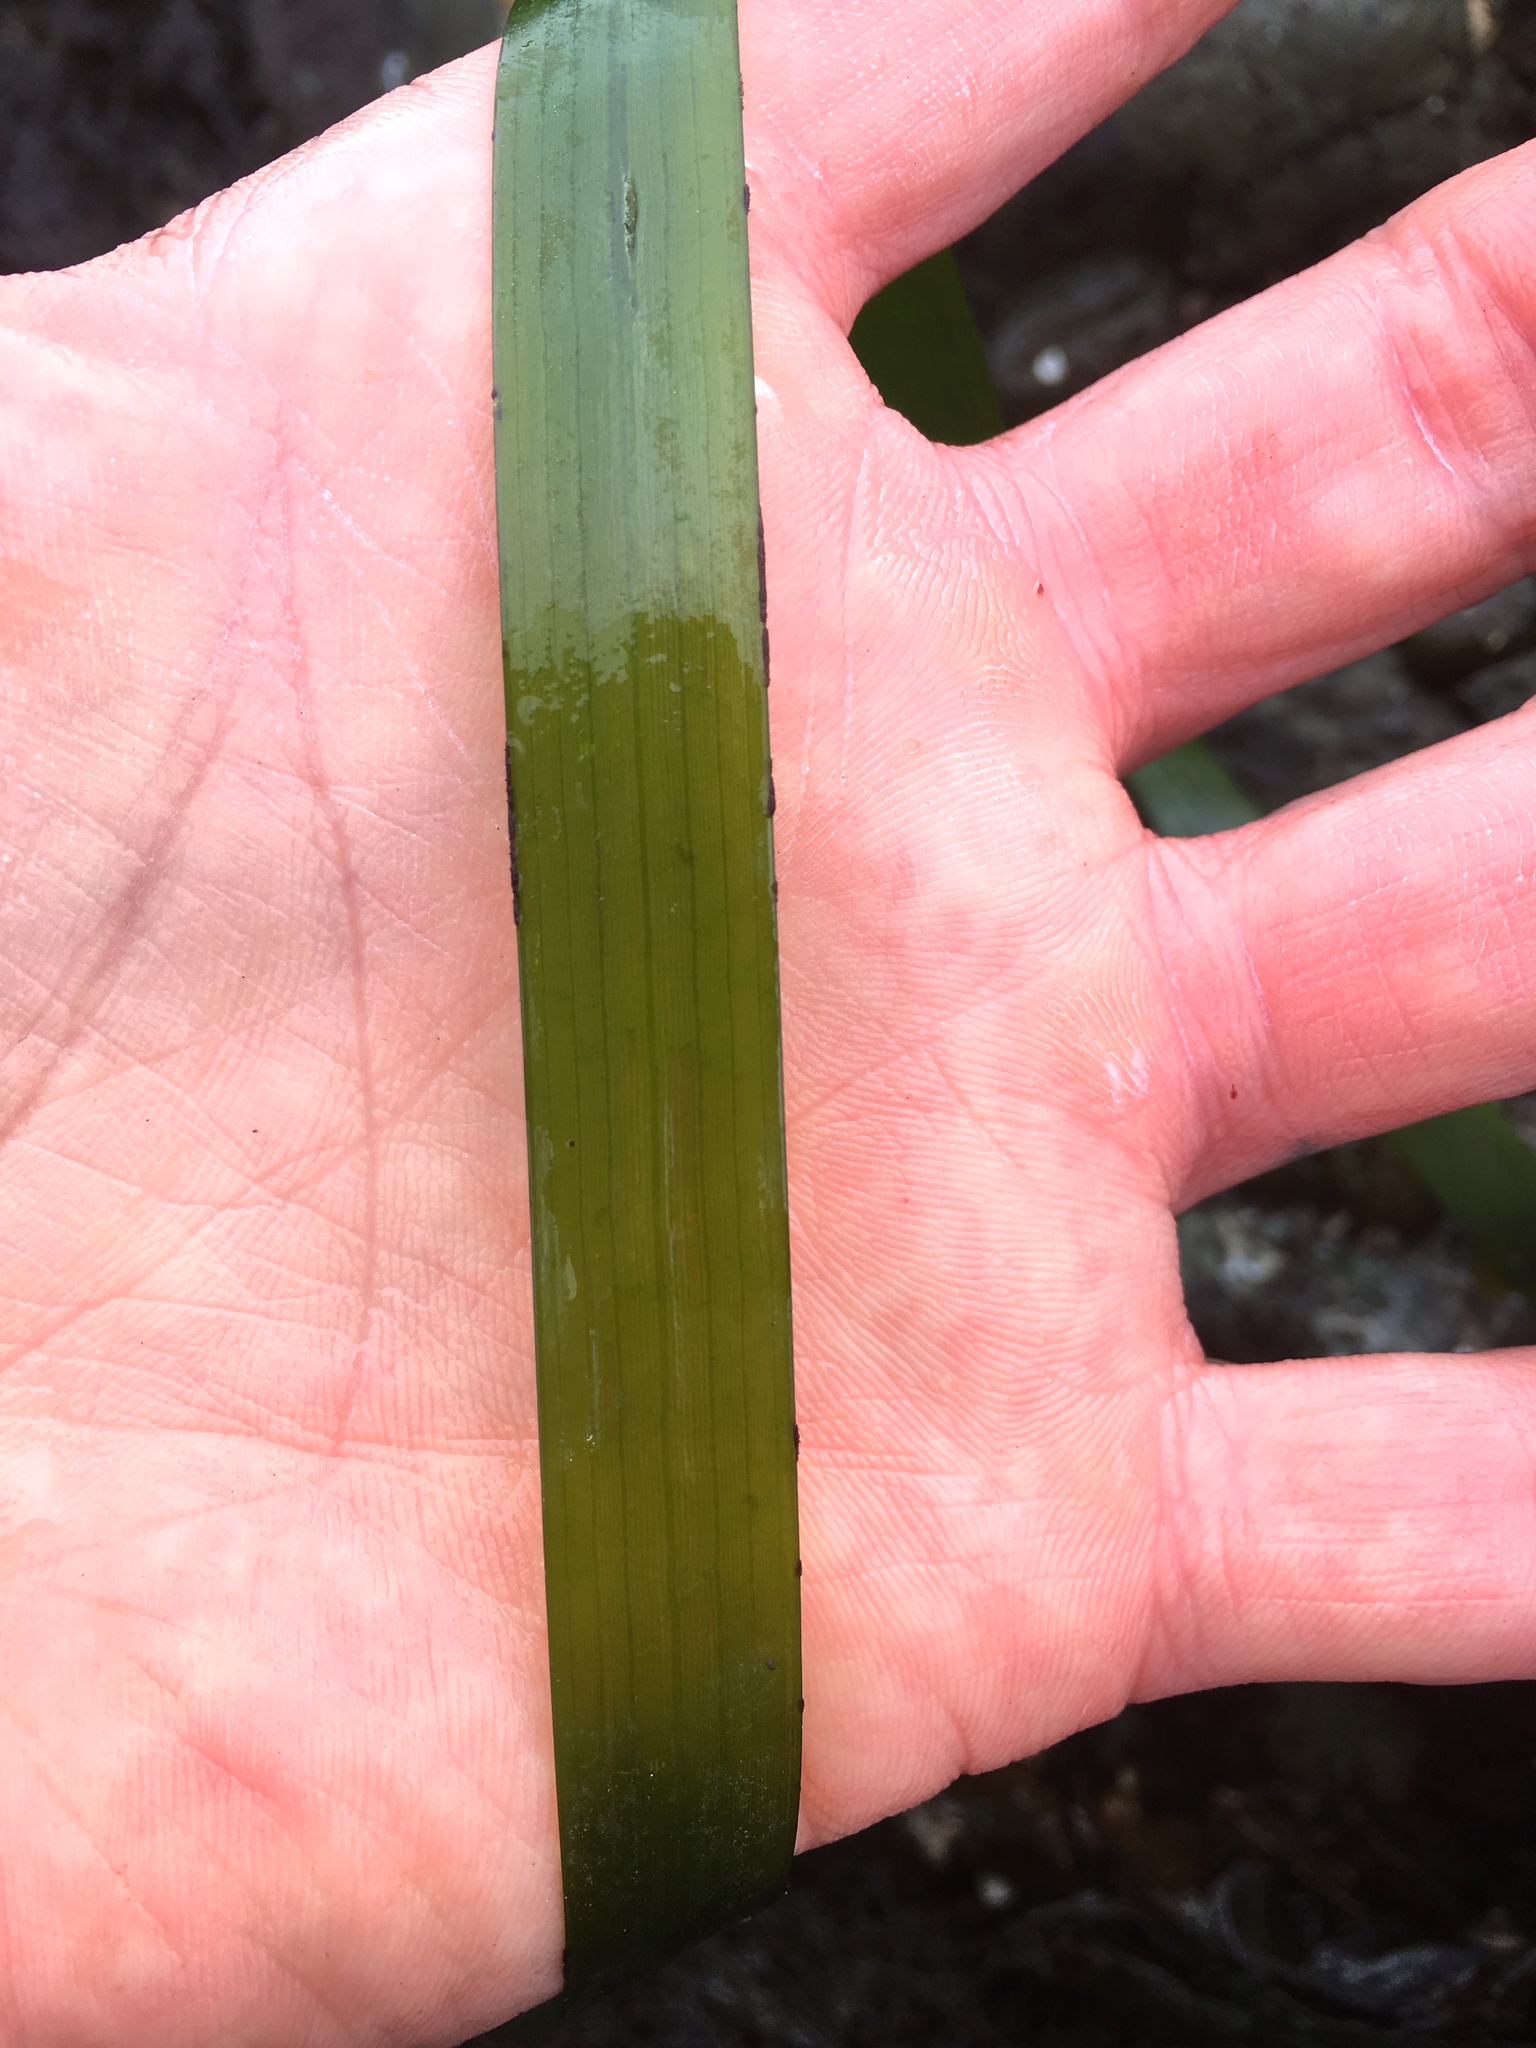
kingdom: Plantae
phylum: Tracheophyta
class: Liliopsida
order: Alismatales
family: Zosteraceae
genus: Zostera
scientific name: Zostera marina
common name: Eelgrass
